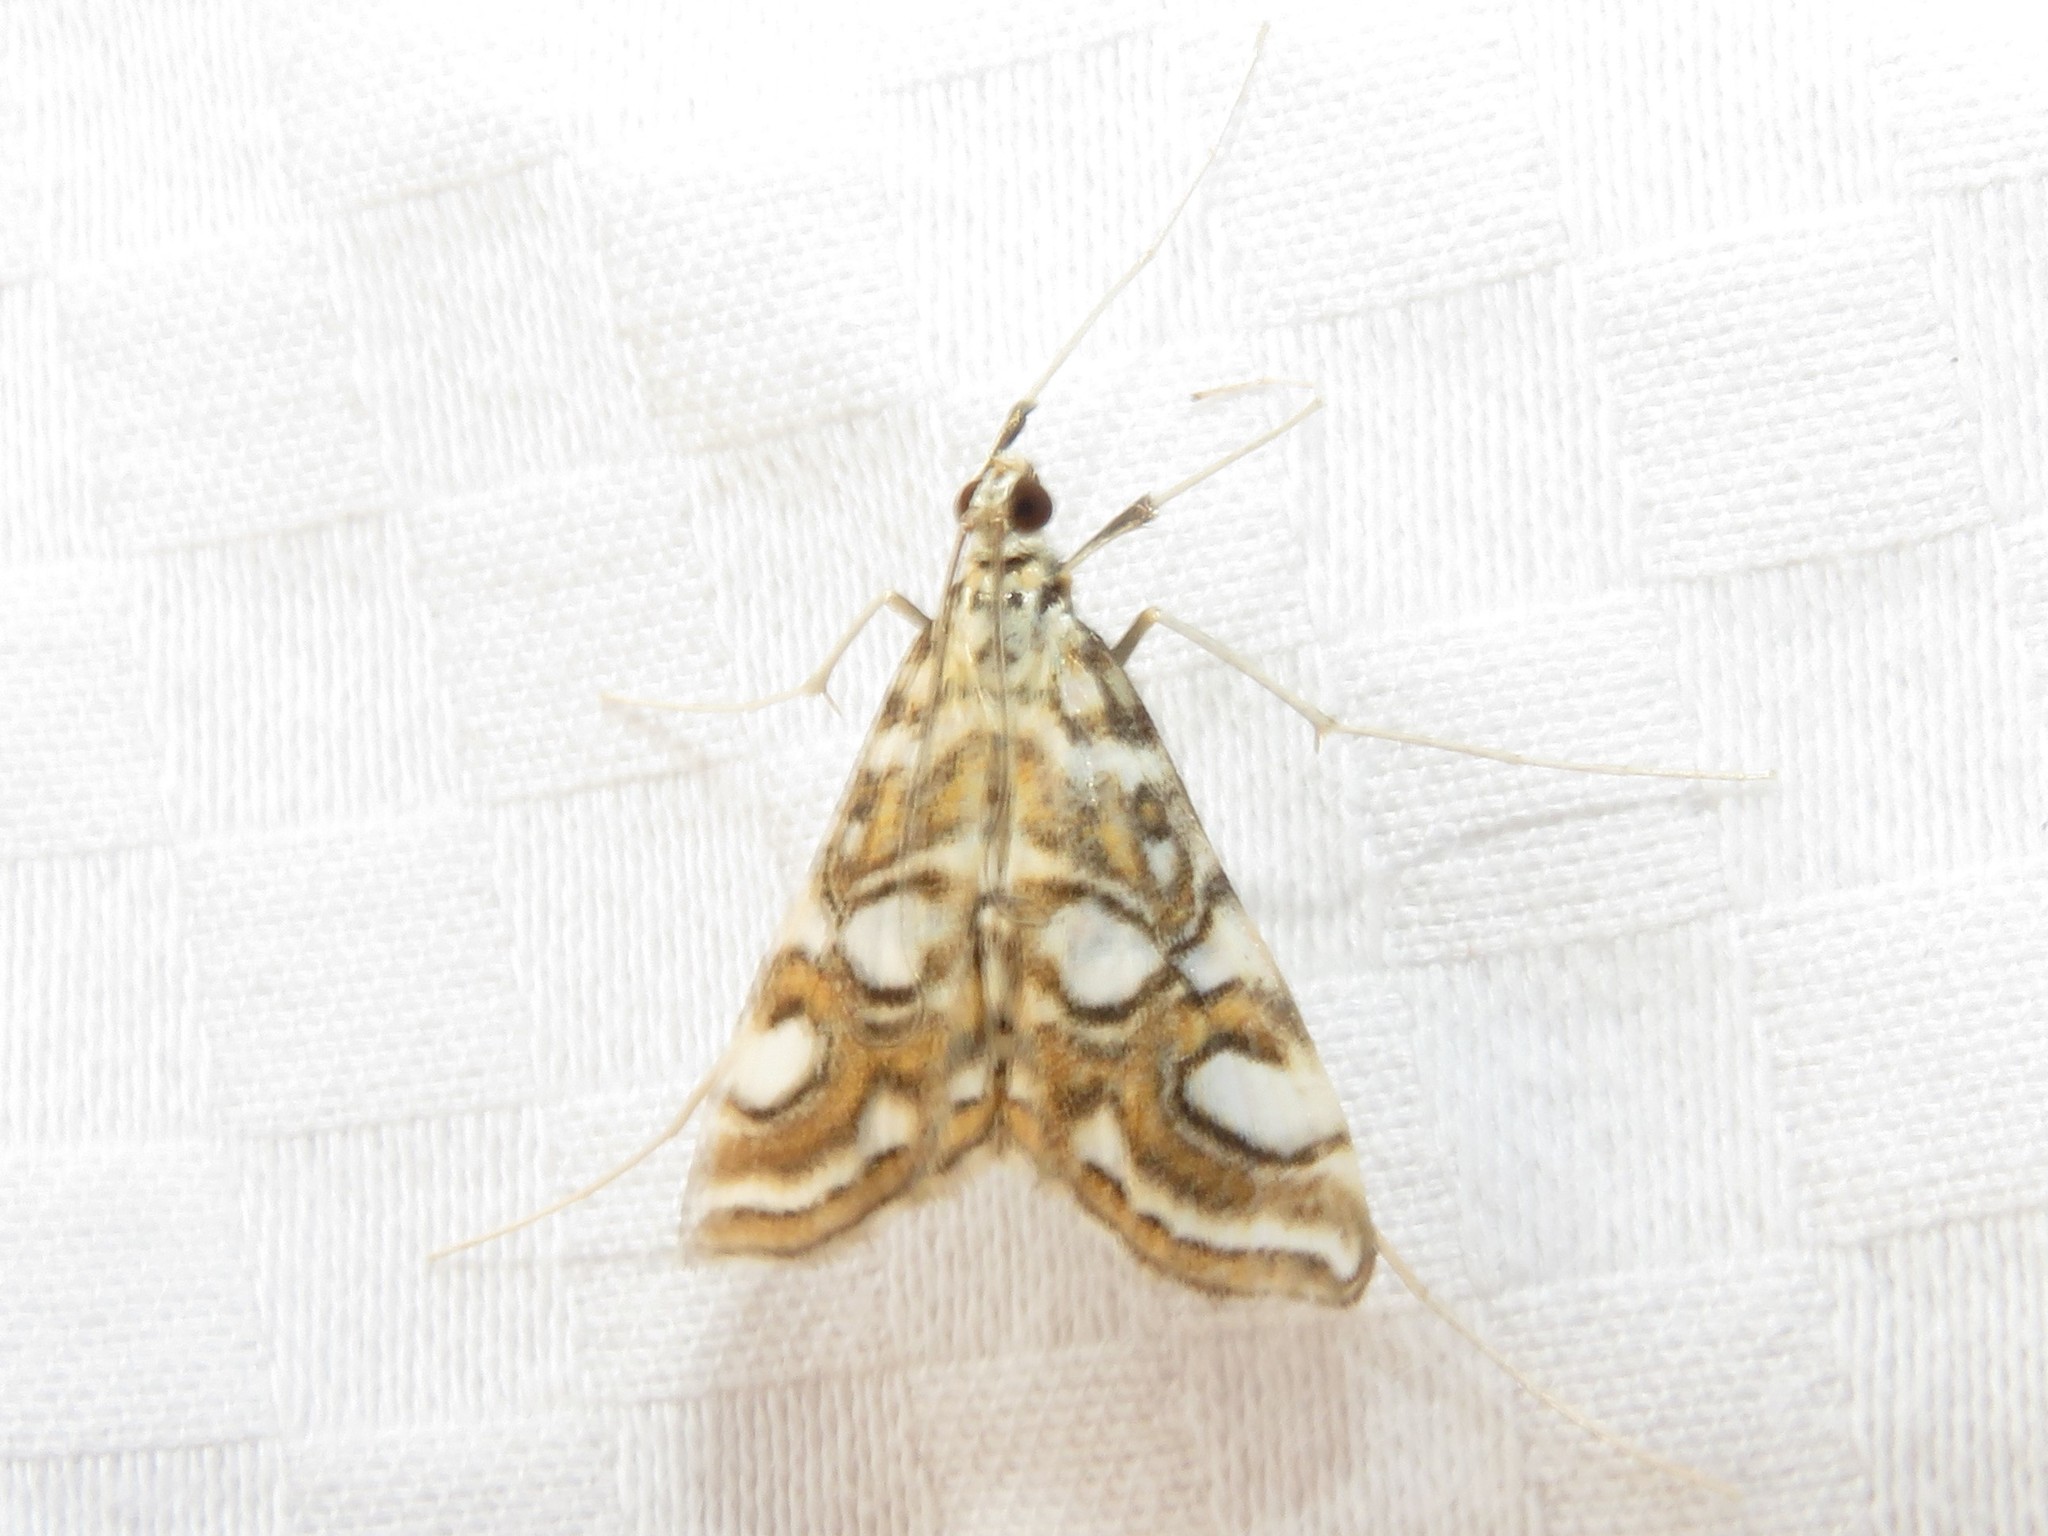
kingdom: Animalia
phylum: Arthropoda
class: Insecta
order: Lepidoptera
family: Crambidae
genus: Elophila
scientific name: Elophila ekthlipsis
